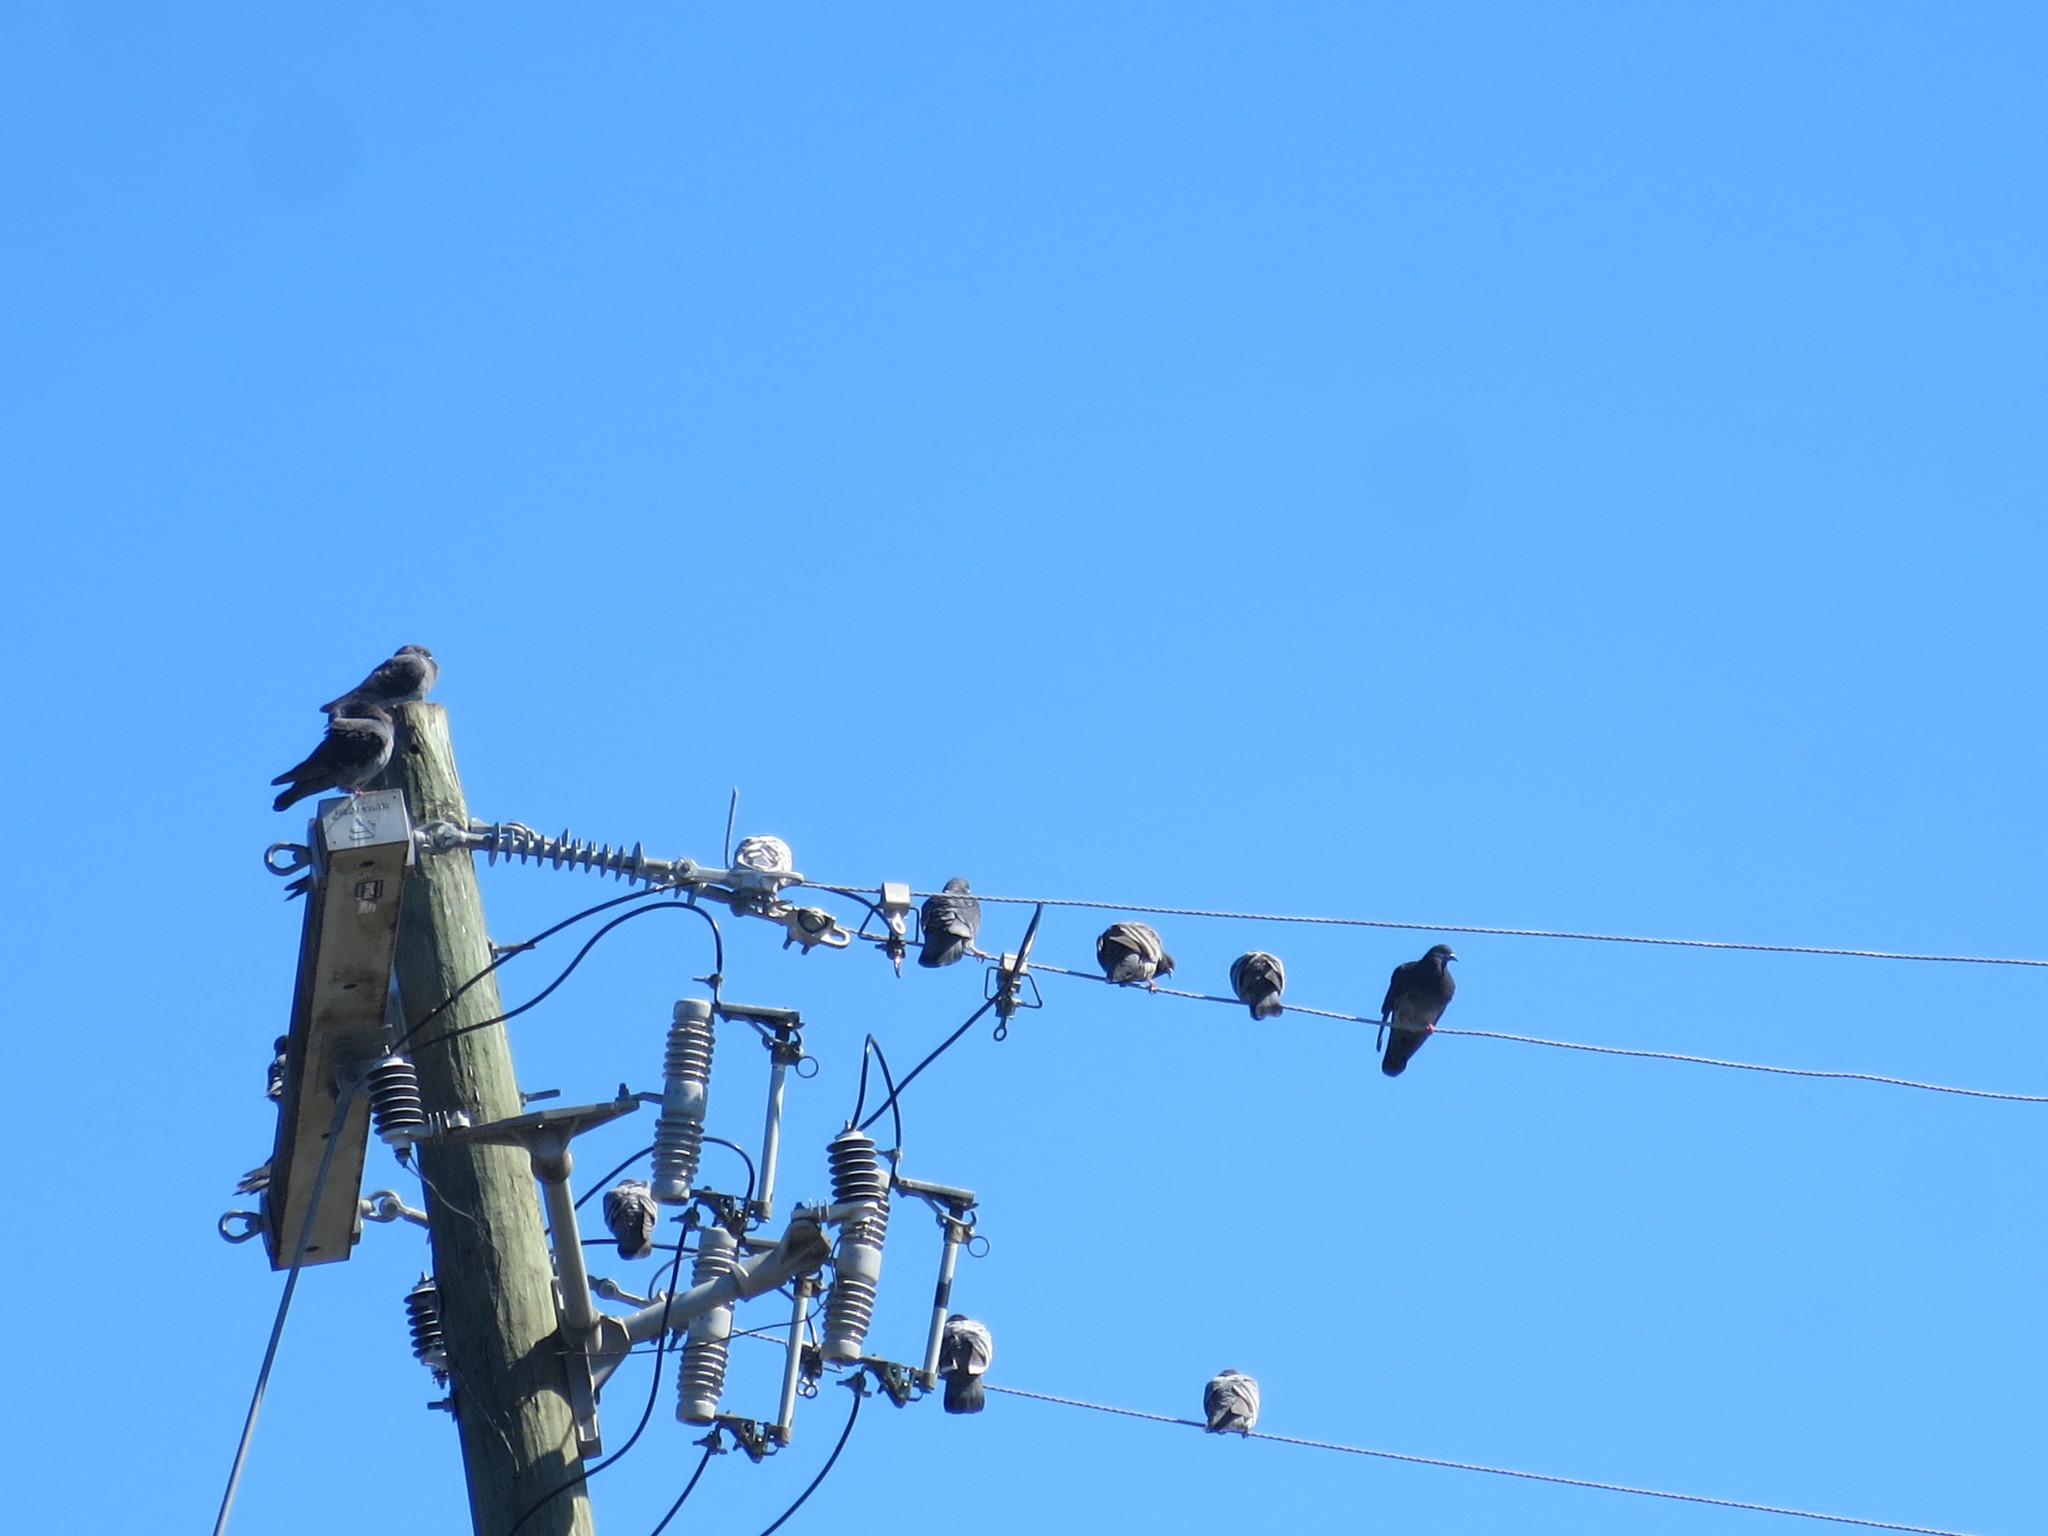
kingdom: Animalia
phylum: Chordata
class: Aves
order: Columbiformes
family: Columbidae
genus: Columba
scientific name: Columba livia
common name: Rock pigeon
